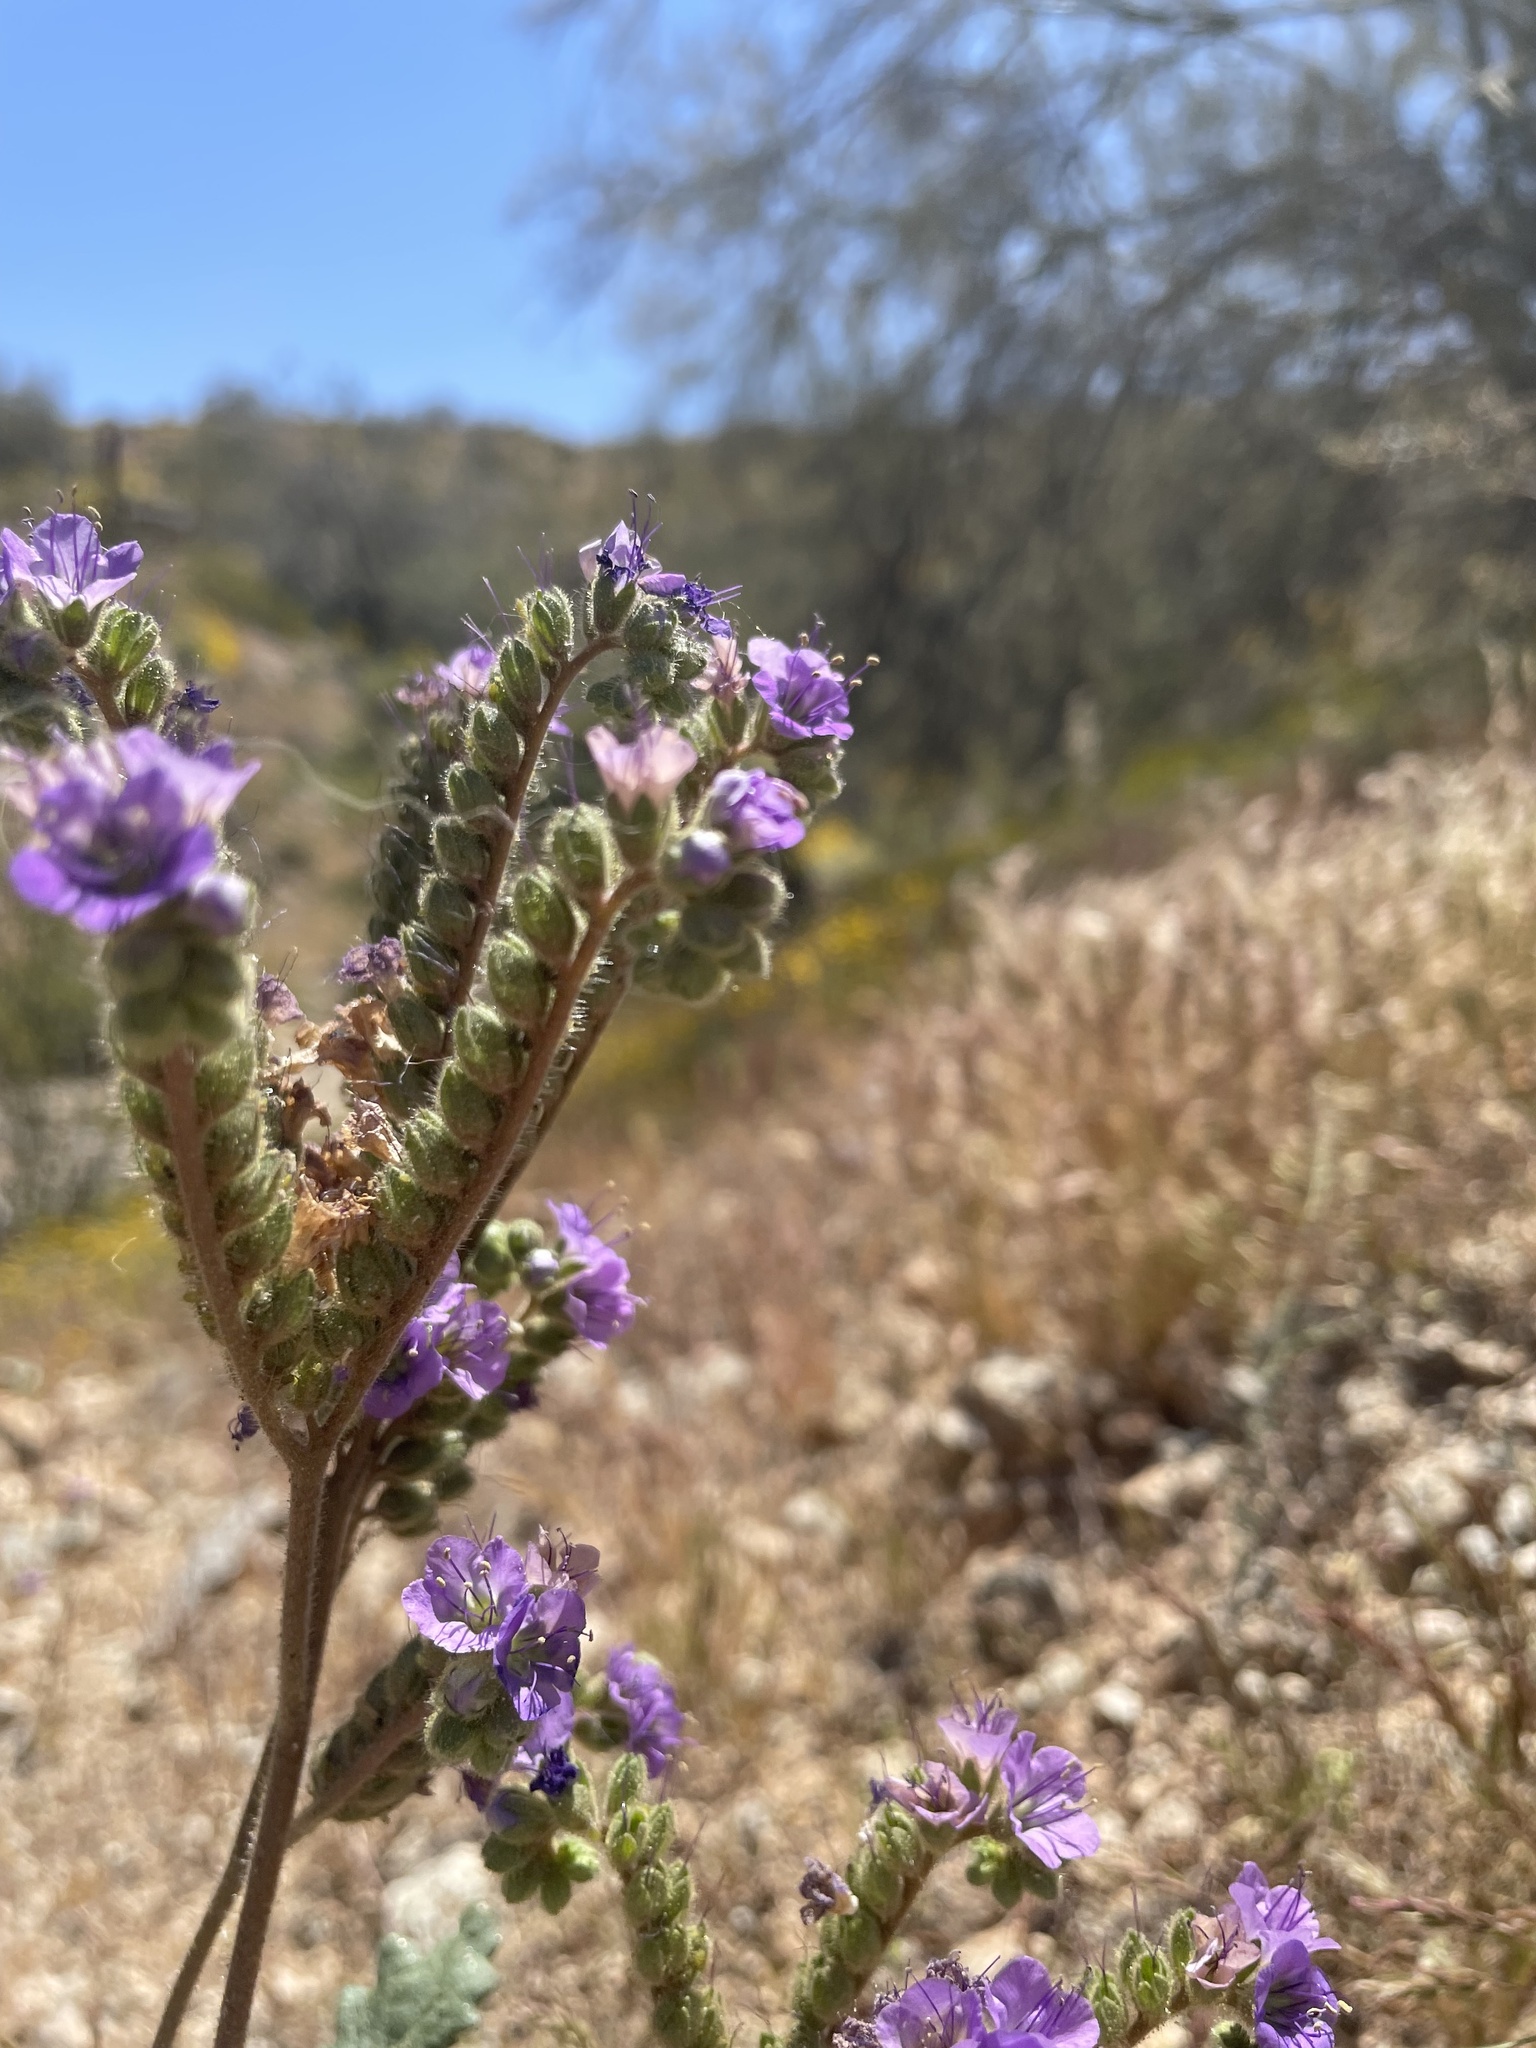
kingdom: Plantae
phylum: Tracheophyta
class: Magnoliopsida
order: Boraginales
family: Hydrophyllaceae
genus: Phacelia
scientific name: Phacelia crenulata
